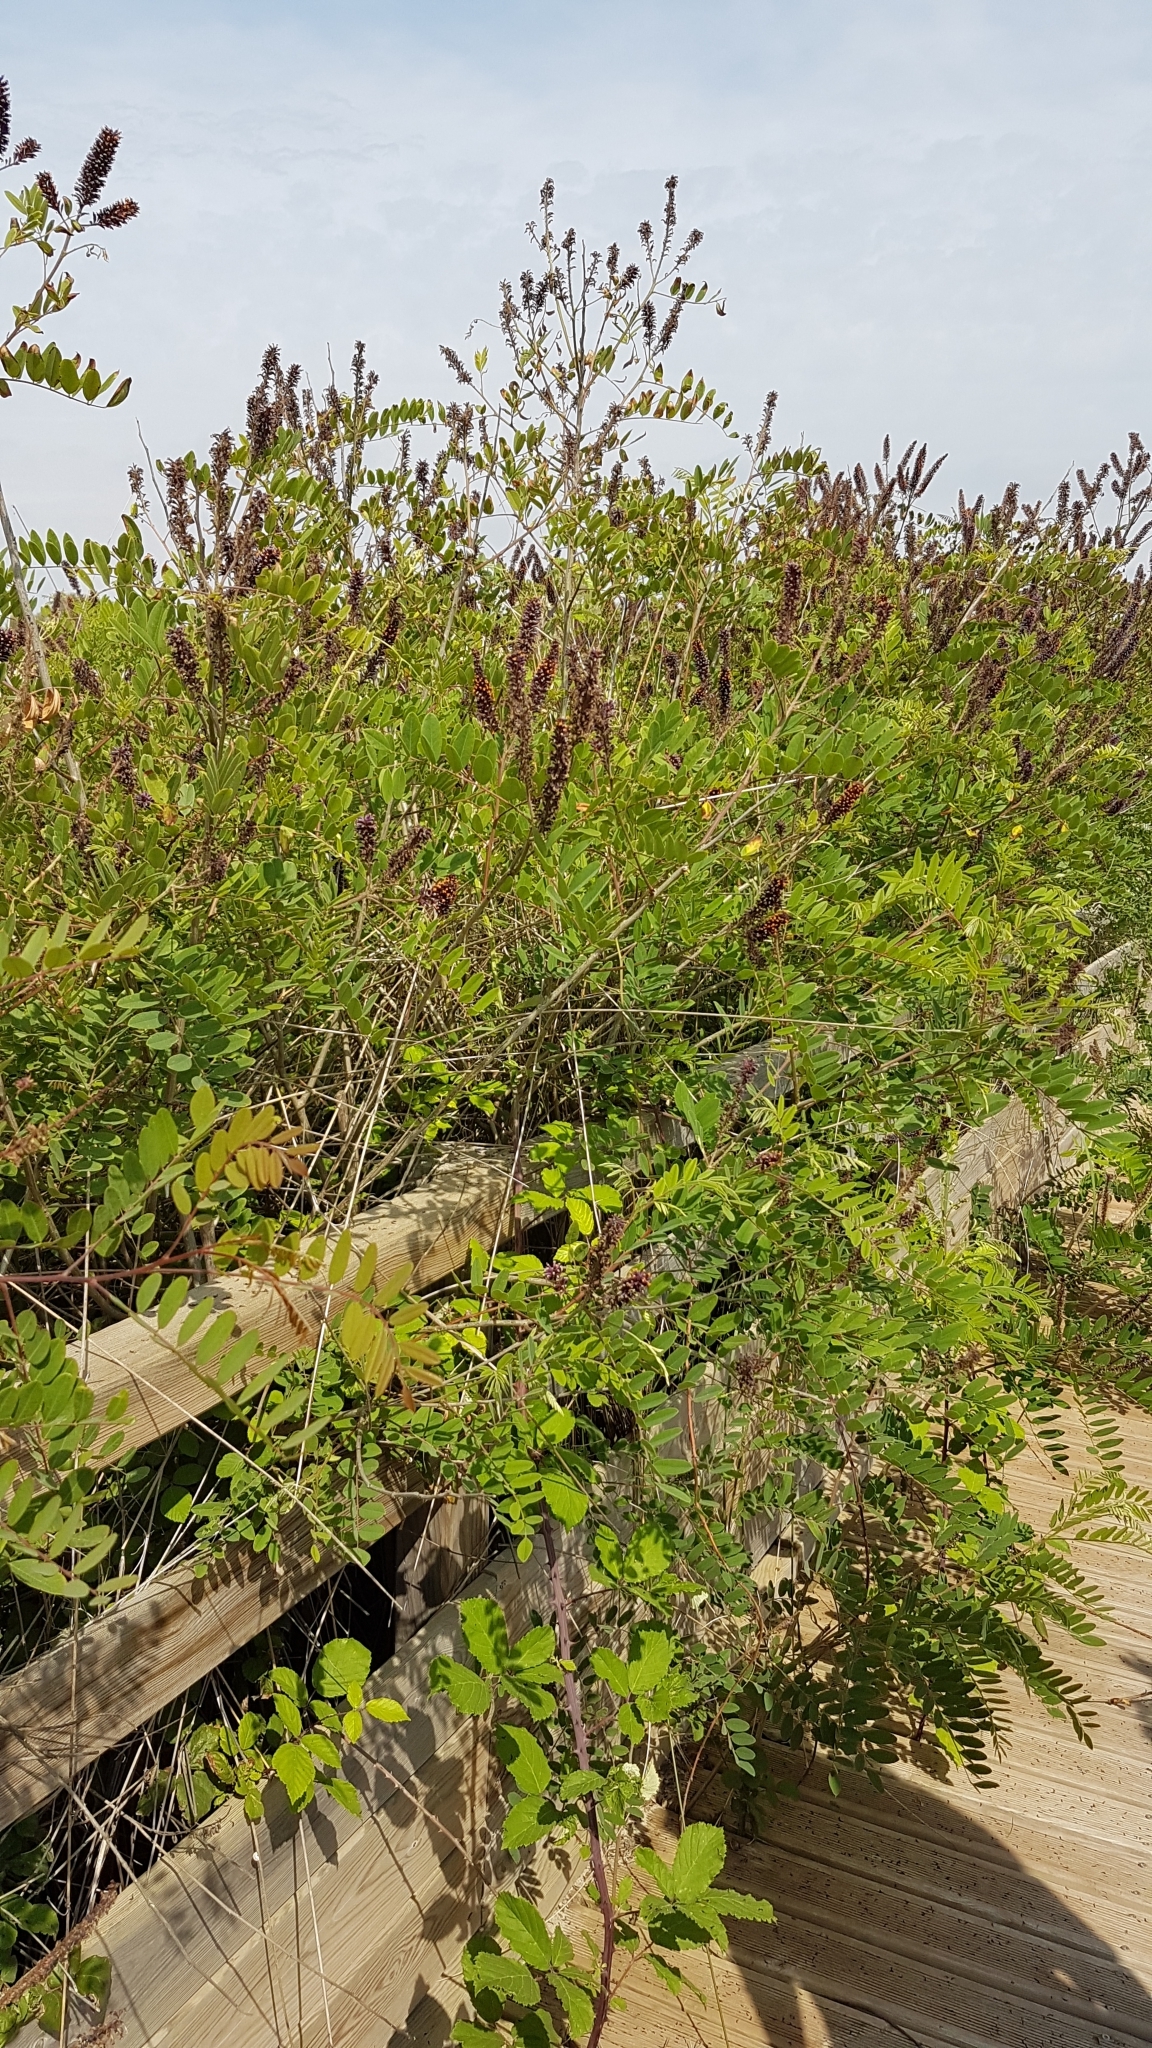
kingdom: Plantae
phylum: Tracheophyta
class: Magnoliopsida
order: Fabales
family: Fabaceae
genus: Amorpha
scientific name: Amorpha fruticosa
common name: False indigo
